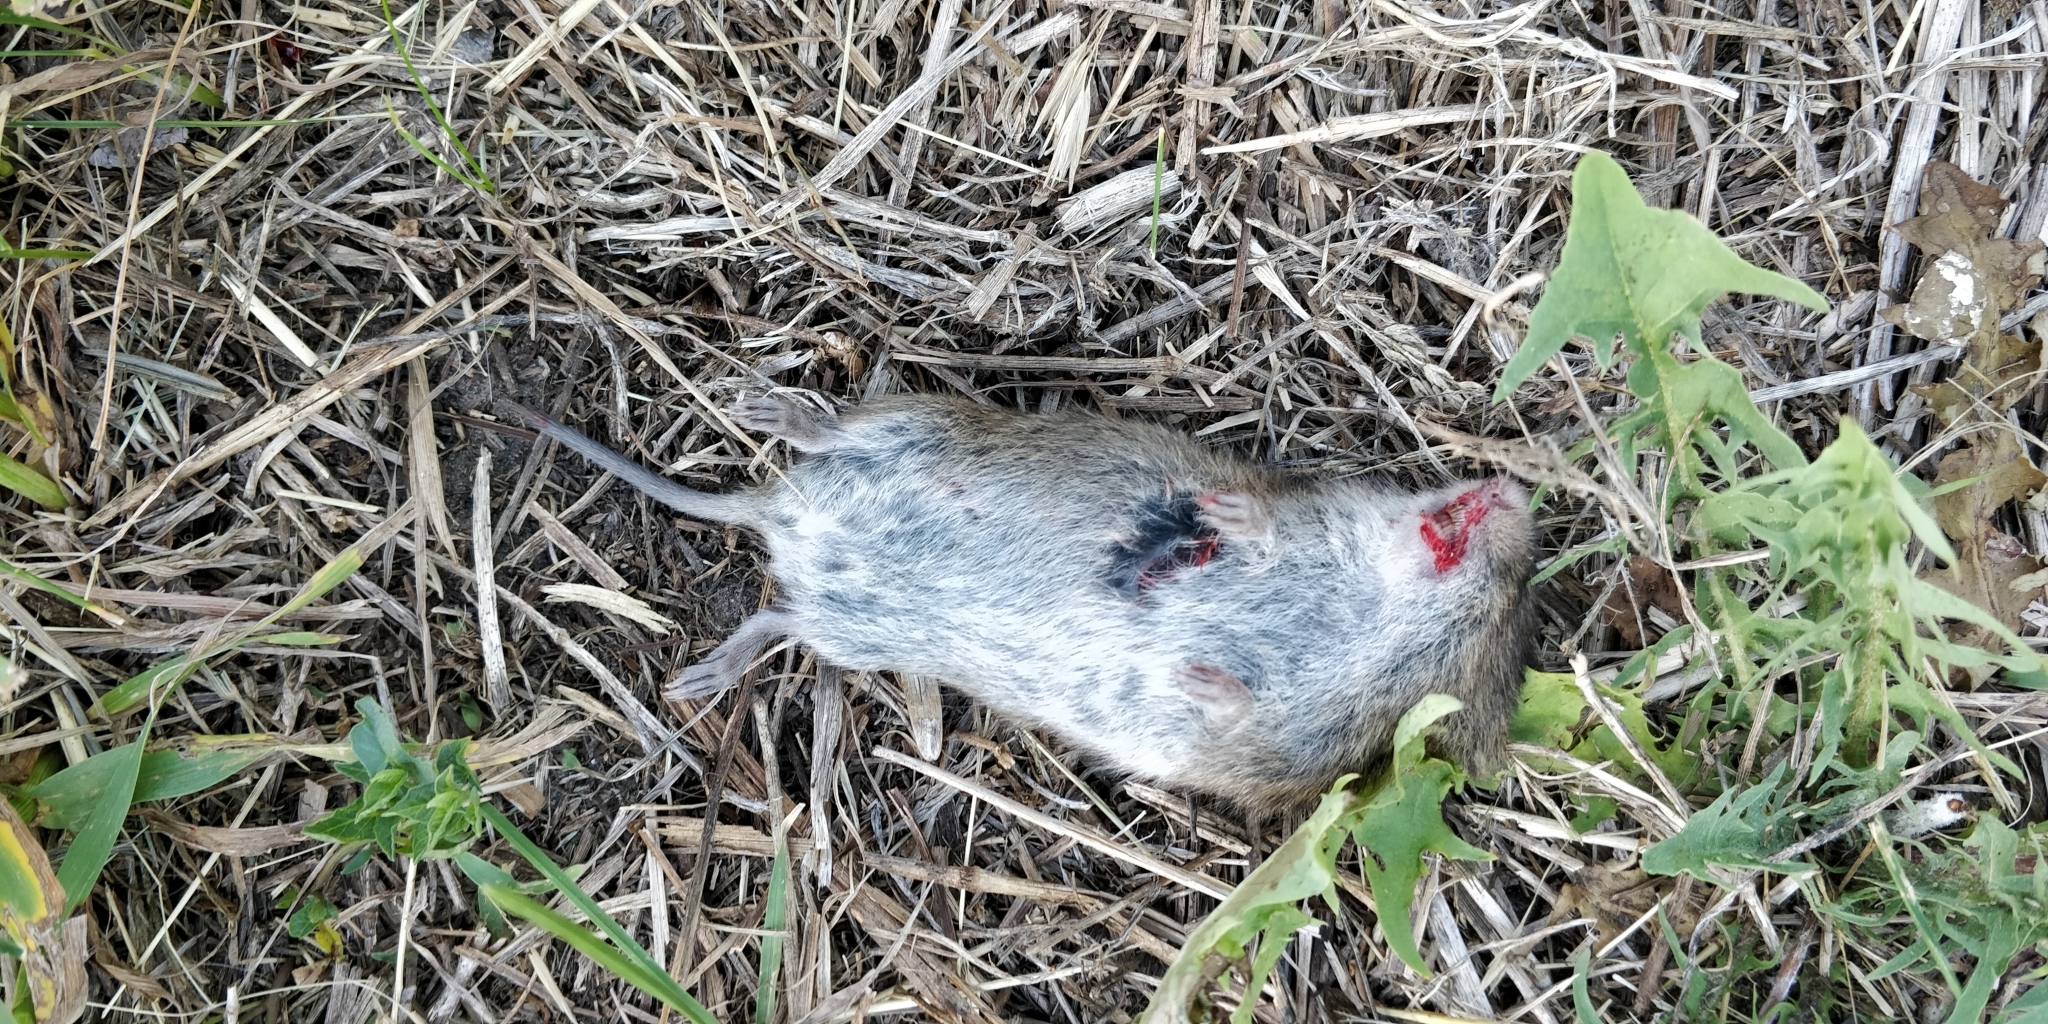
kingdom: Animalia
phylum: Chordata
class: Mammalia
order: Rodentia
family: Cricetidae
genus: Microtus
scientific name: Microtus pennsylvanicus
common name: Meadow vole
